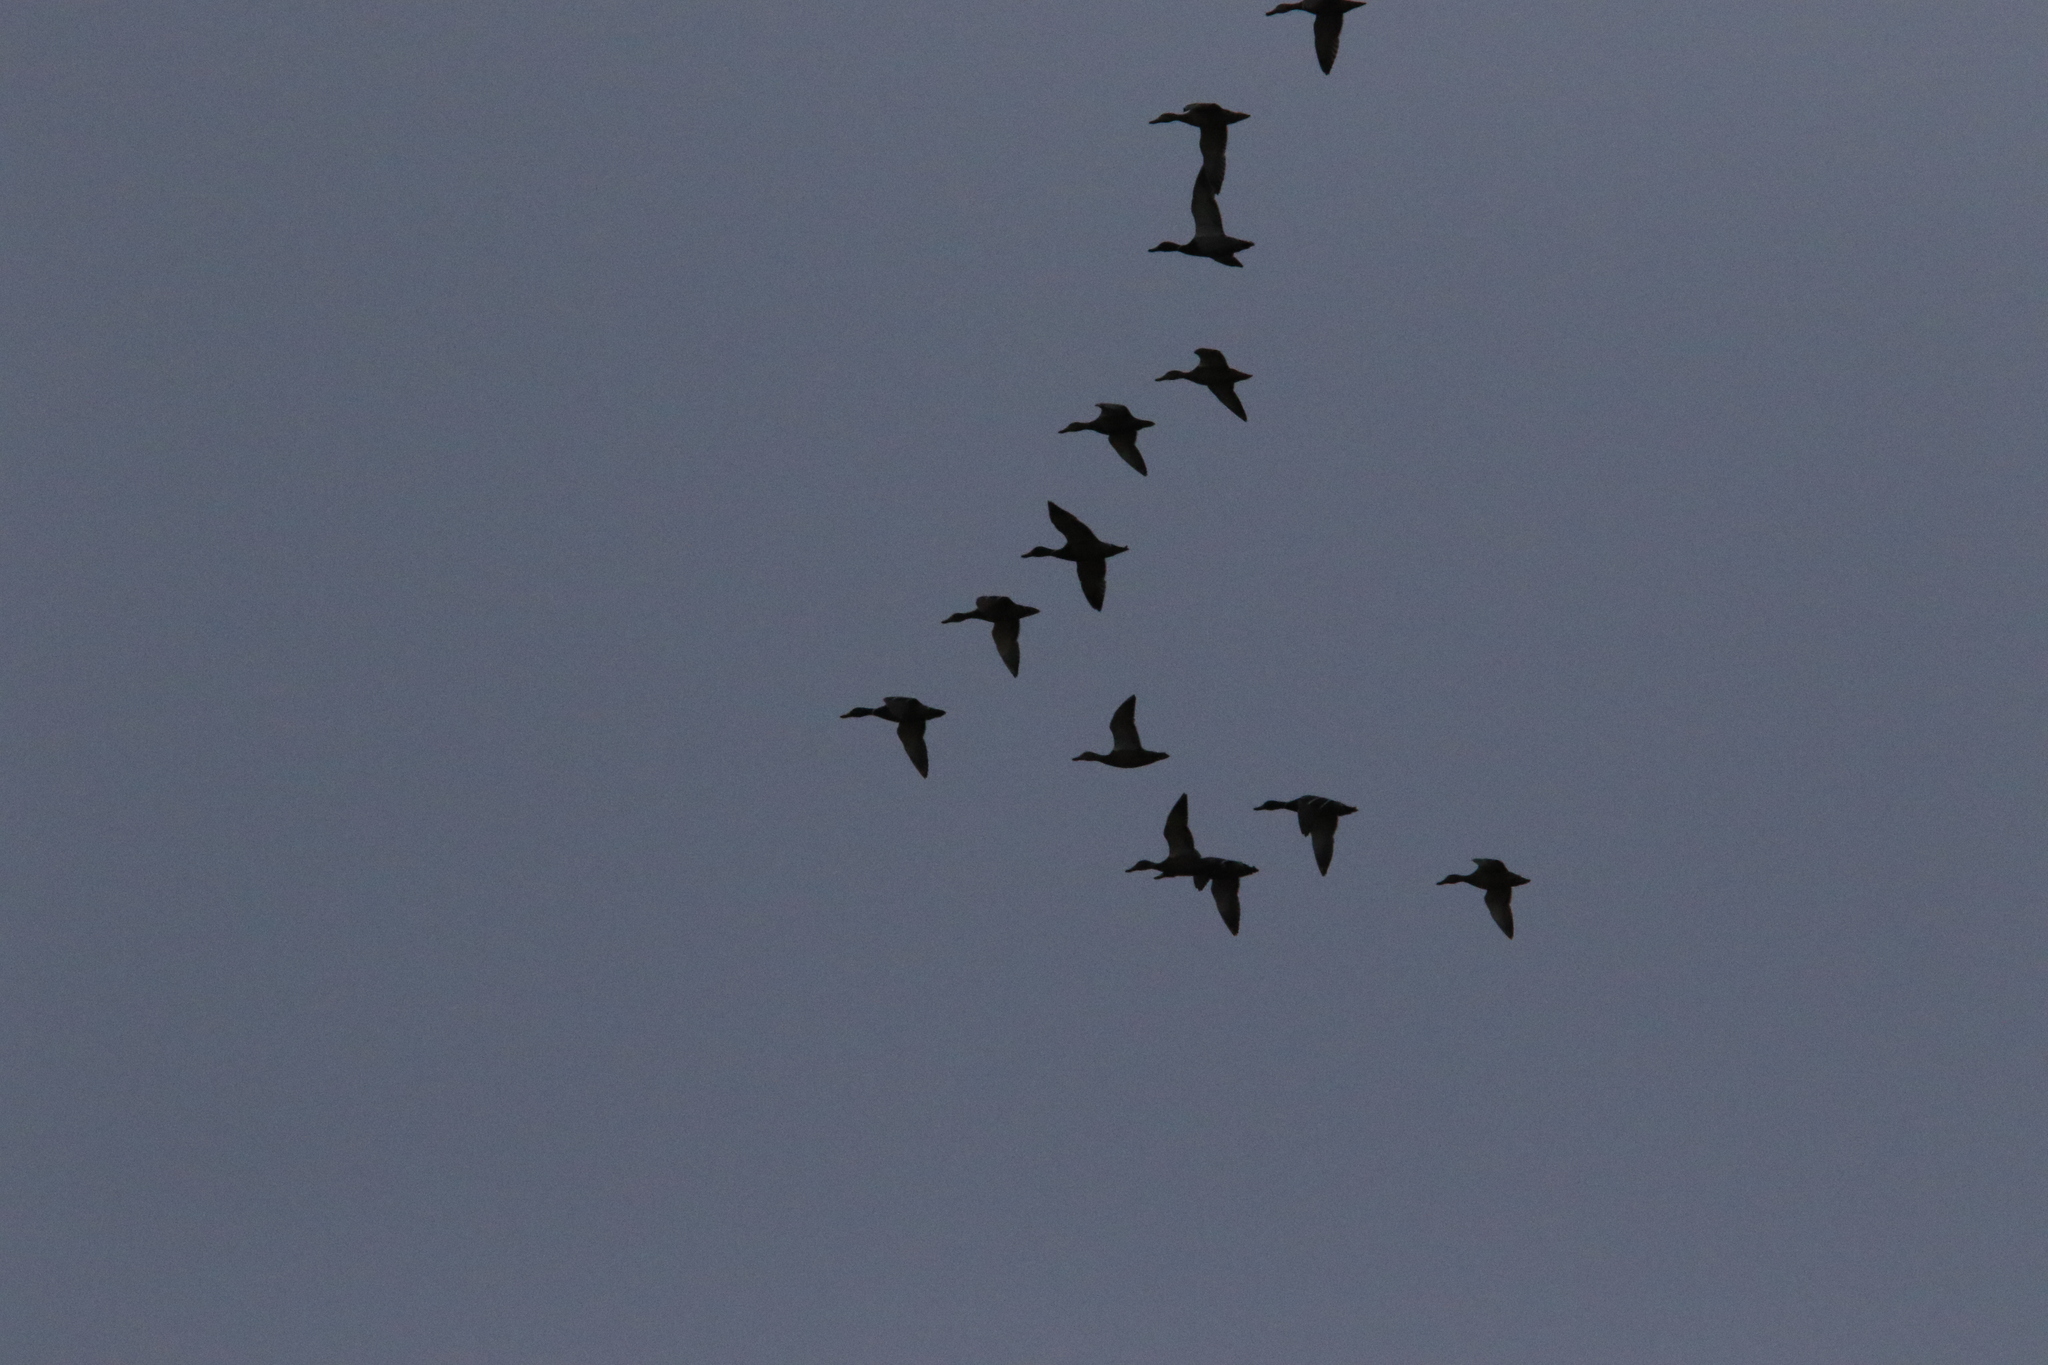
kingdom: Animalia
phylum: Chordata
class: Aves
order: Anseriformes
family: Anatidae
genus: Anas
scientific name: Anas platyrhynchos
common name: Mallard
